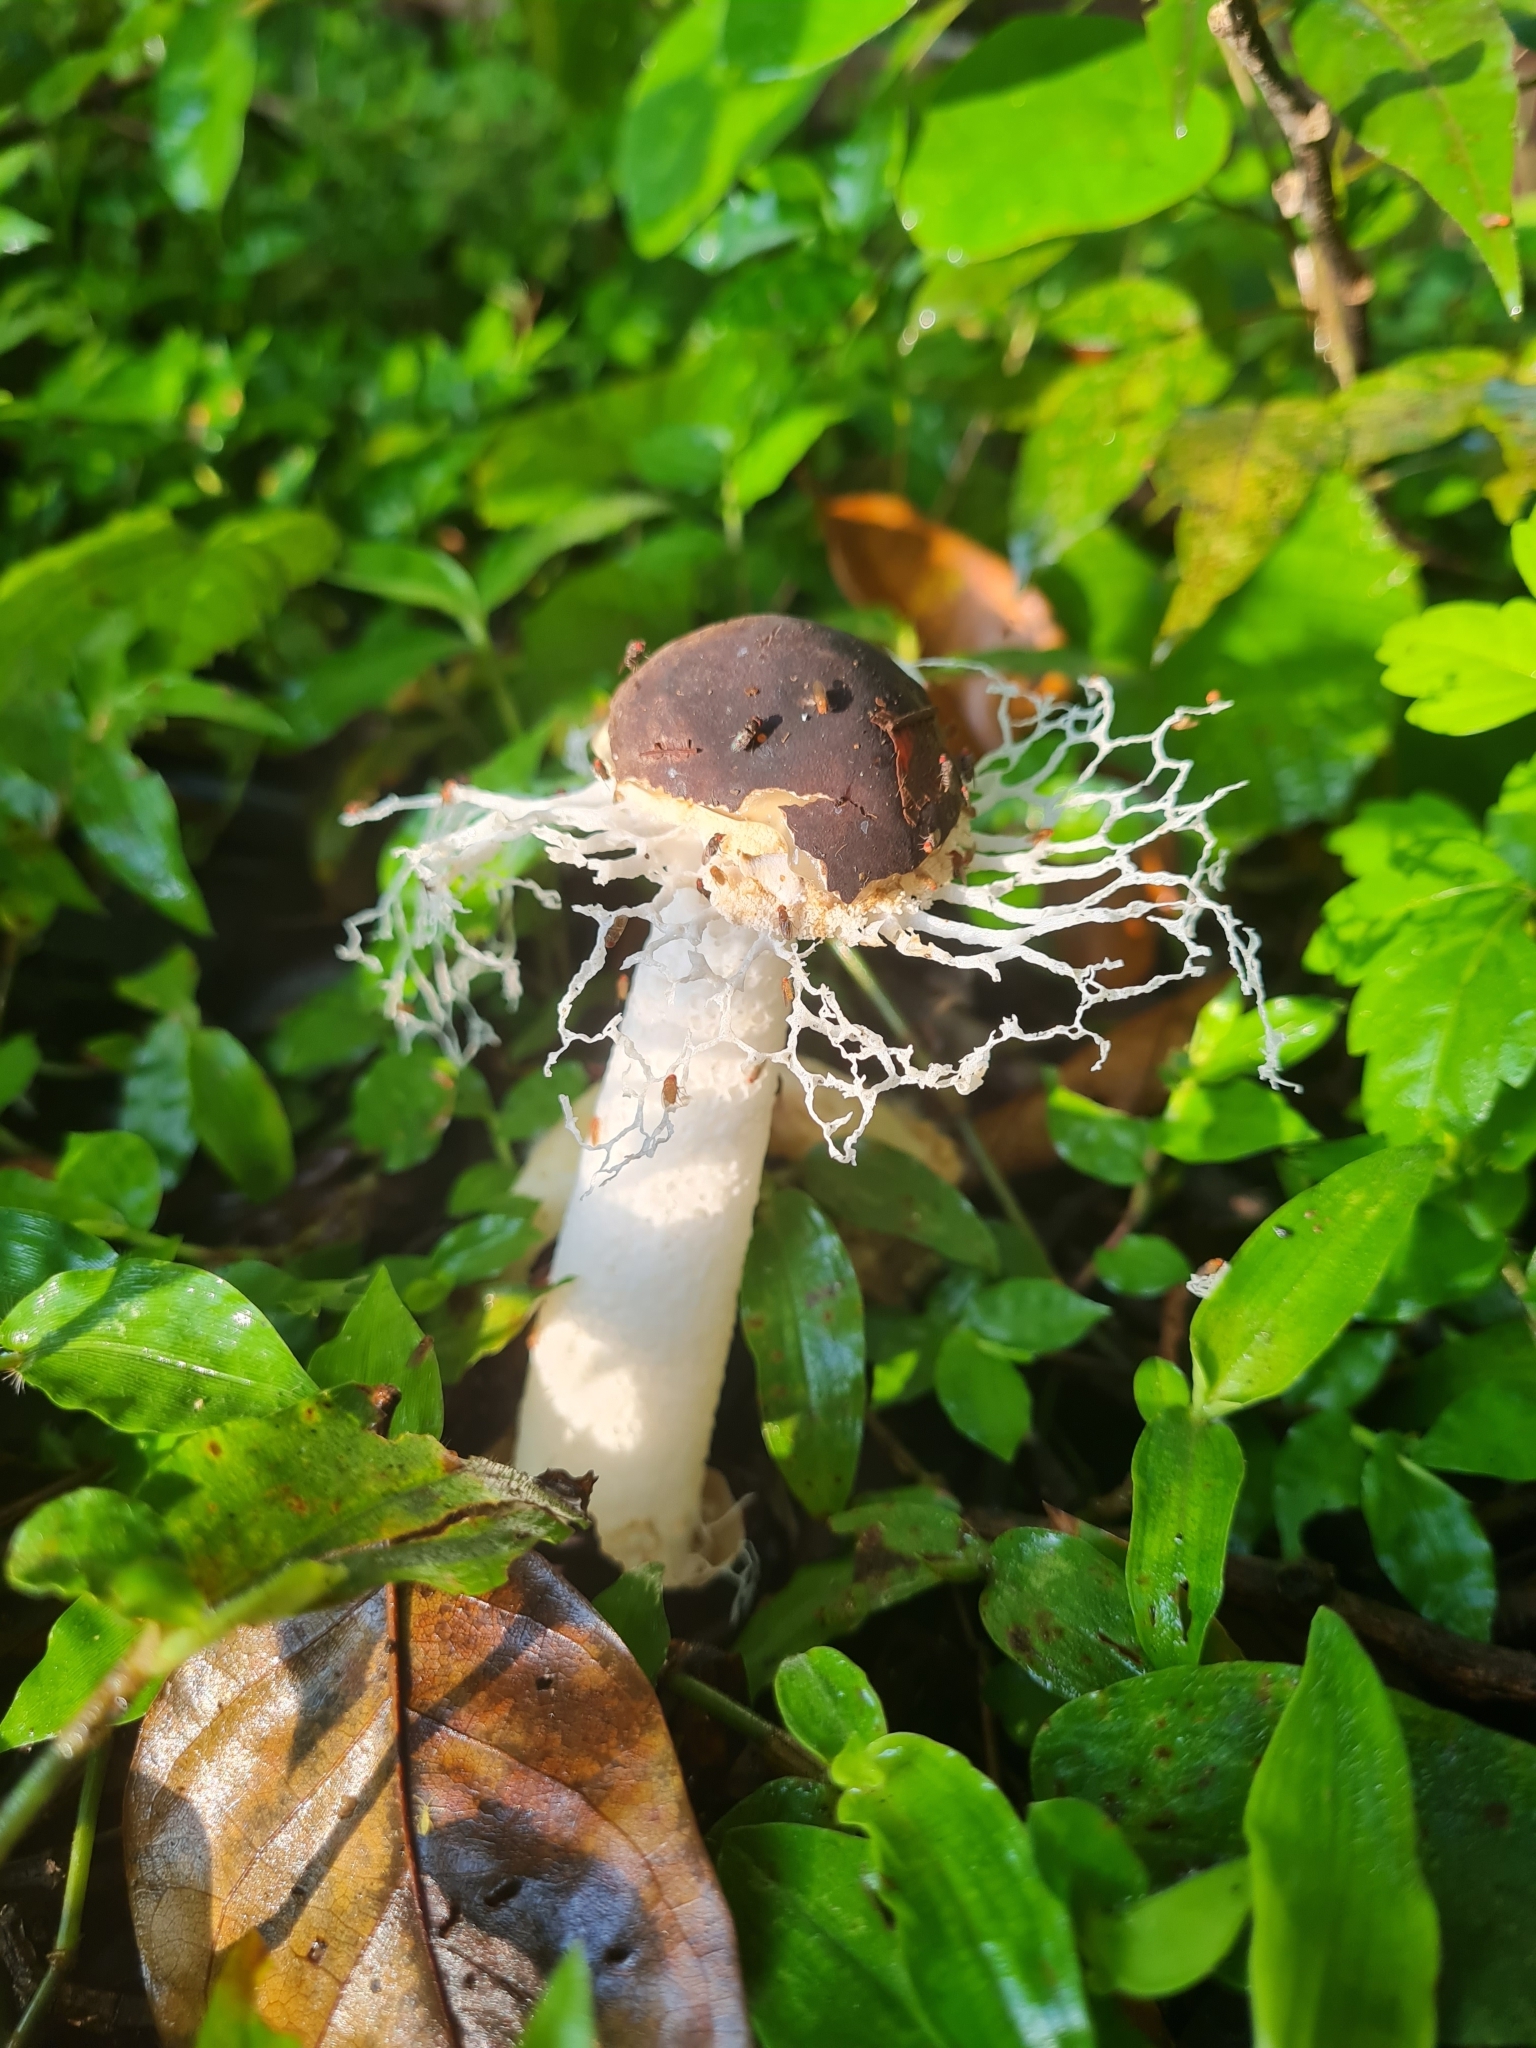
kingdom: Fungi
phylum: Basidiomycota
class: Agaricomycetes
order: Phallales
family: Phallaceae
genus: Phallus
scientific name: Phallus atrovolvatus
